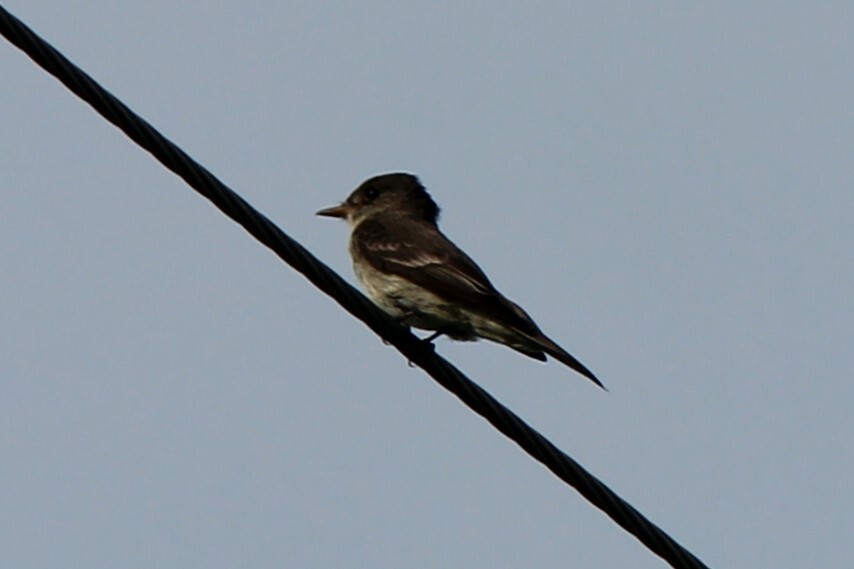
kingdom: Animalia
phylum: Chordata
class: Aves
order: Passeriformes
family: Tyrannidae
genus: Contopus
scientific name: Contopus virens
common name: Eastern wood-pewee
